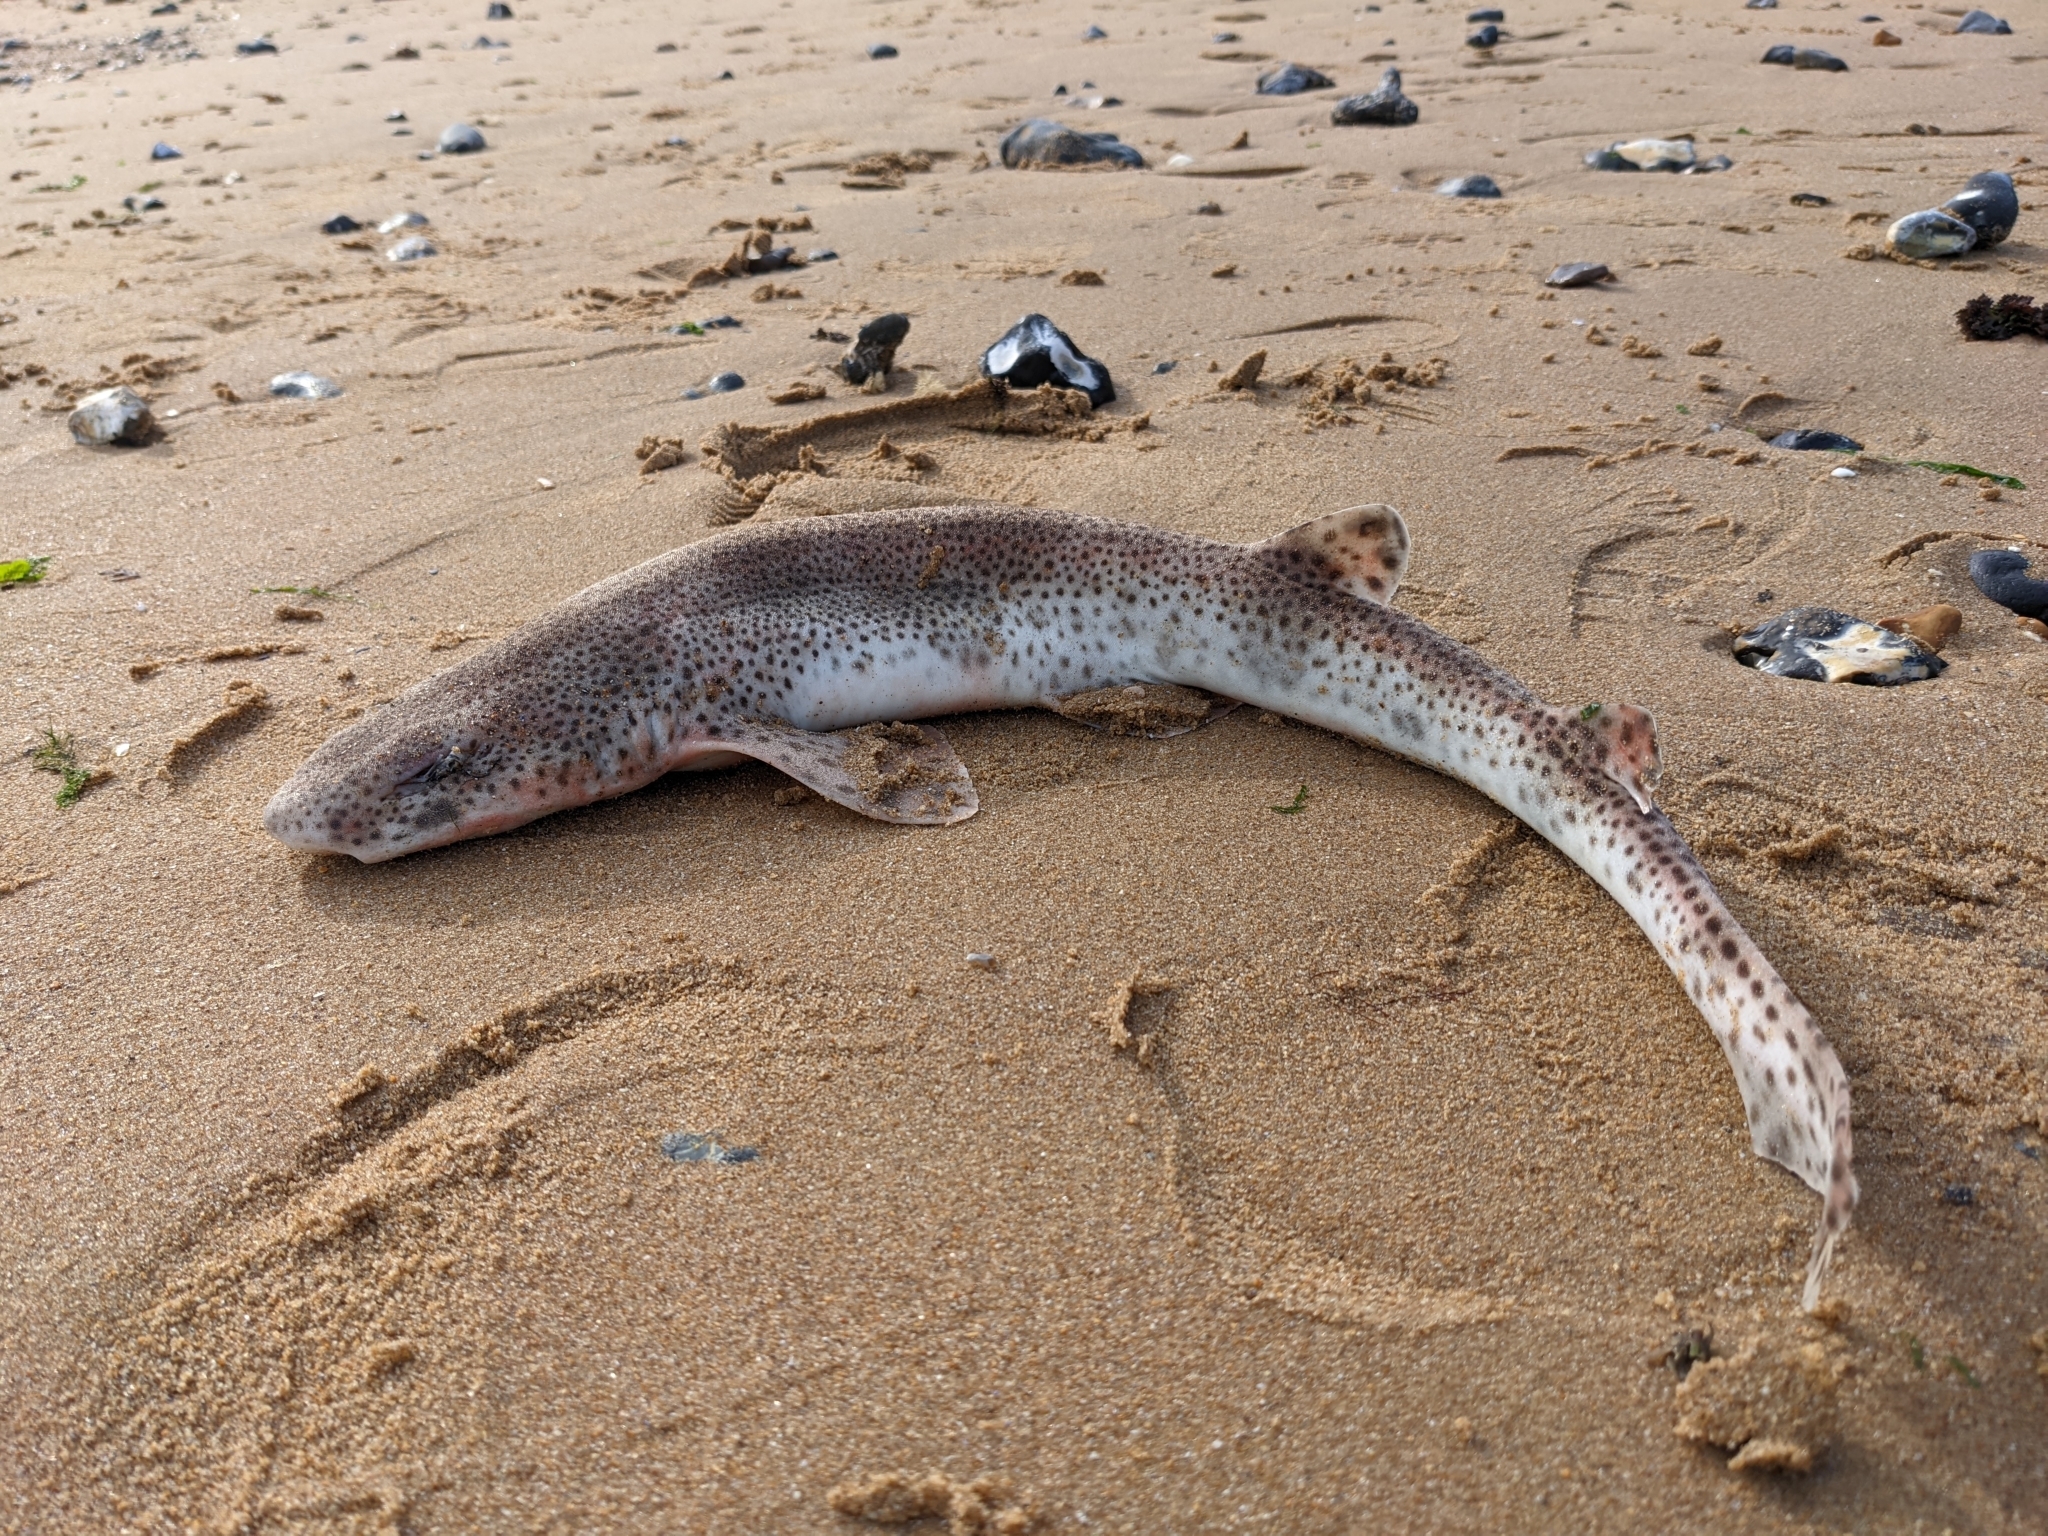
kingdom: Animalia
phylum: Chordata
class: Elasmobranchii
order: Carcharhiniformes
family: Scyliorhinidae
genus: Scyliorhinus
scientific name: Scyliorhinus canicula
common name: Lesser spotted dogfish
